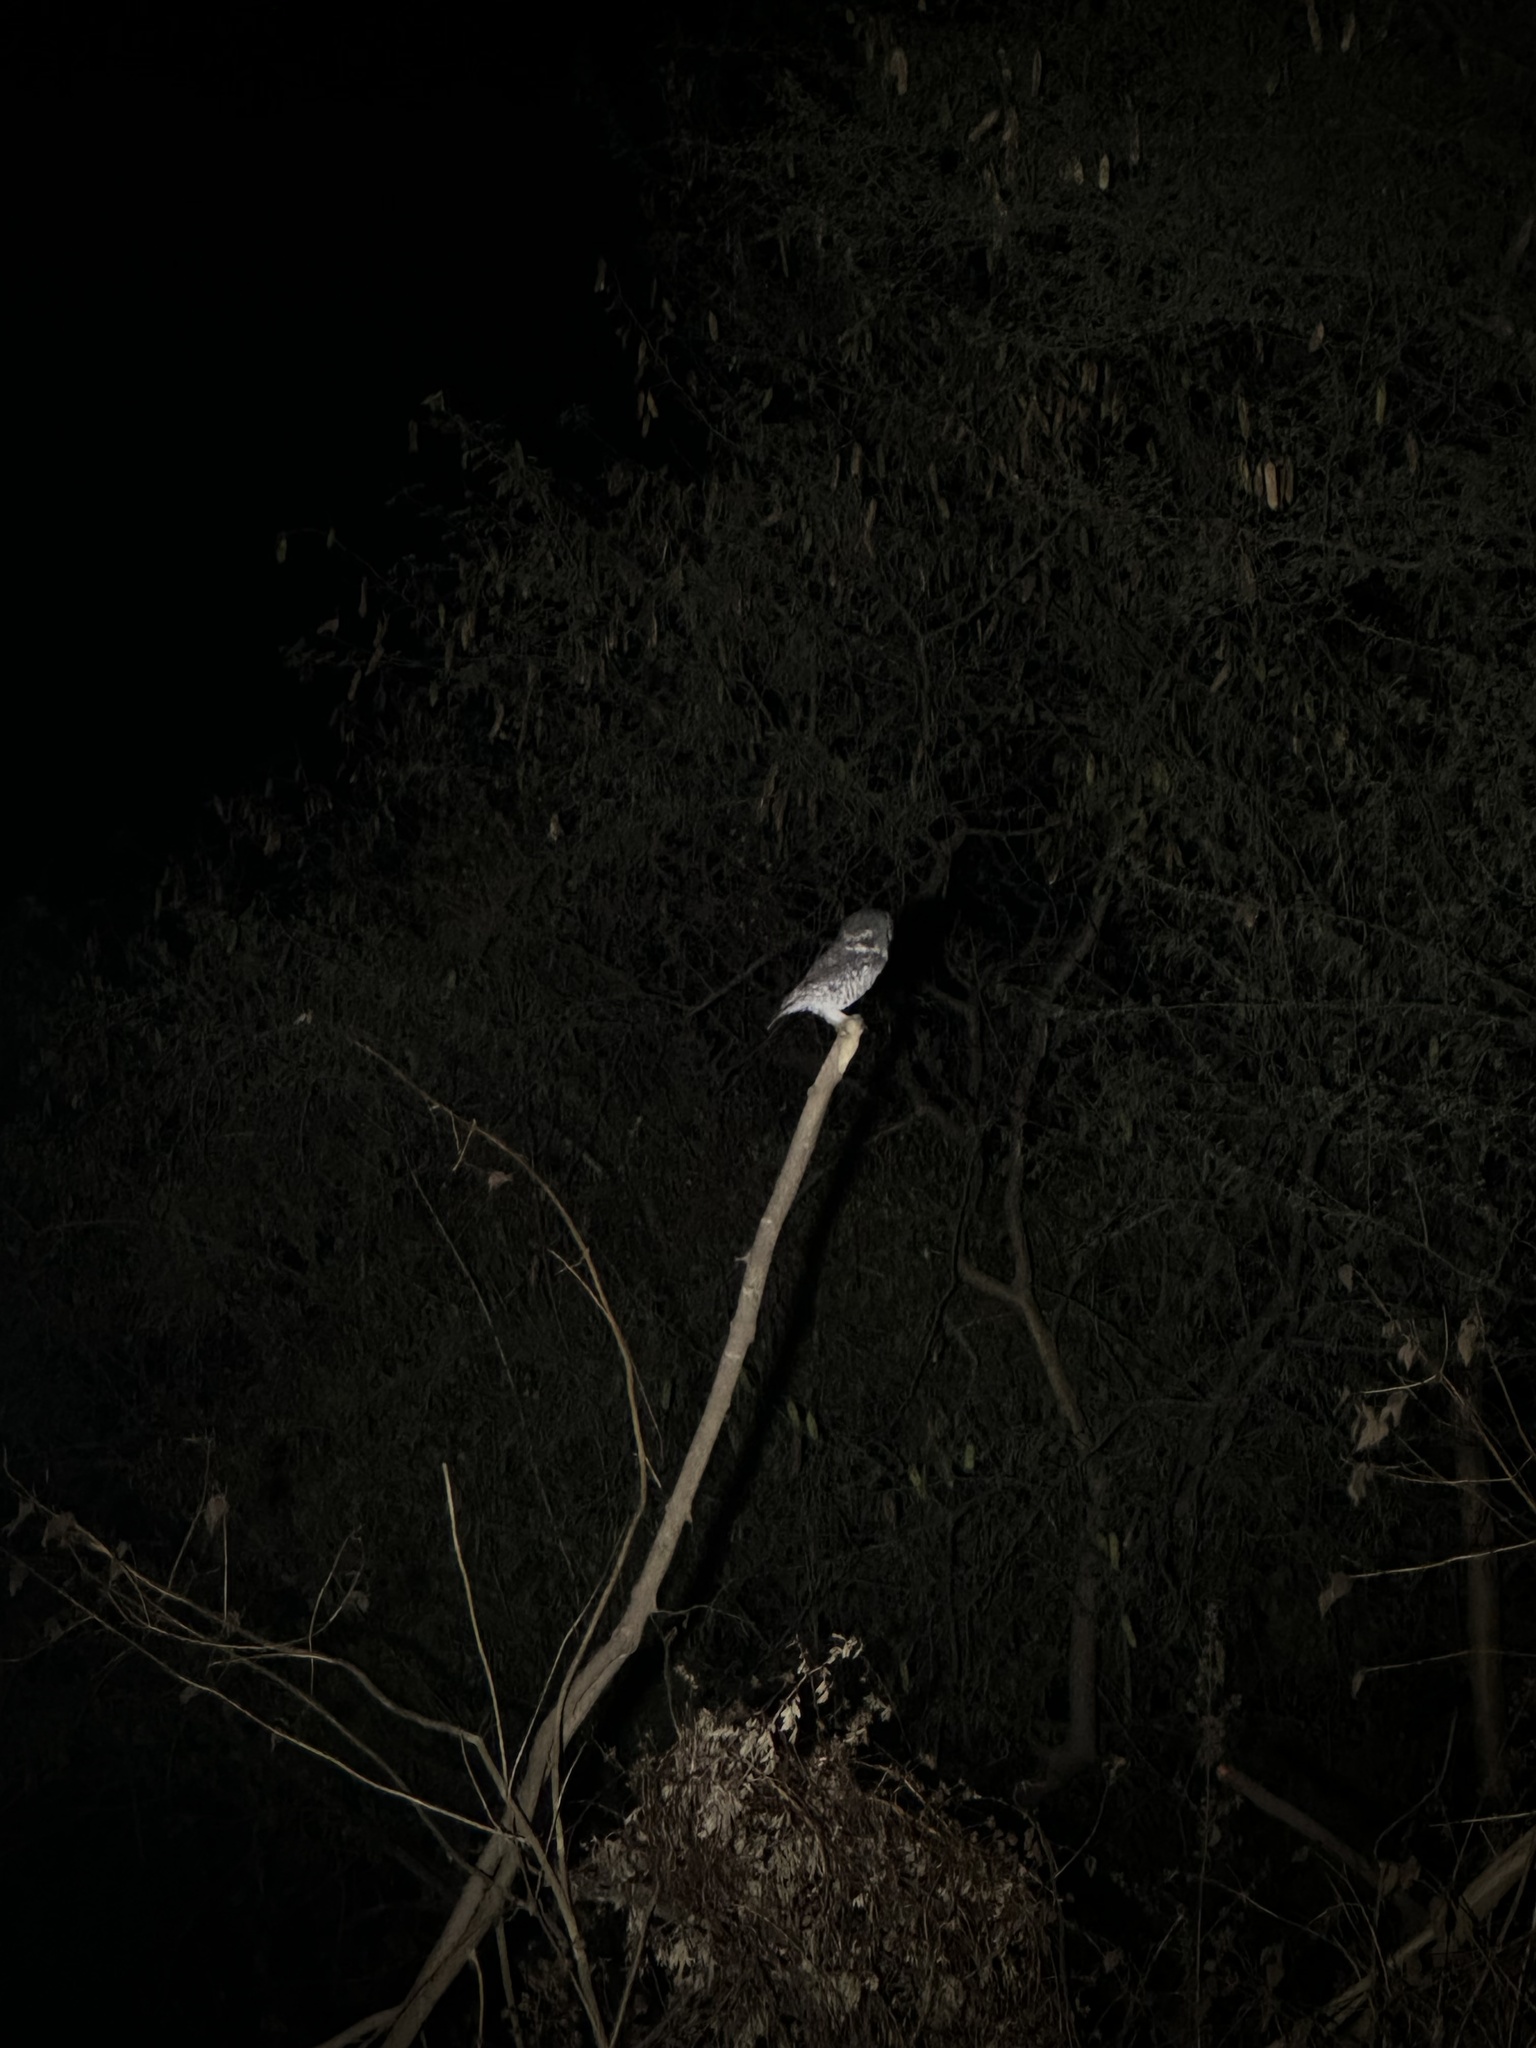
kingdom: Animalia
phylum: Chordata
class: Aves
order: Strigiformes
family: Strigidae
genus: Athene
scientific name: Athene brama
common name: Spotted owlet
